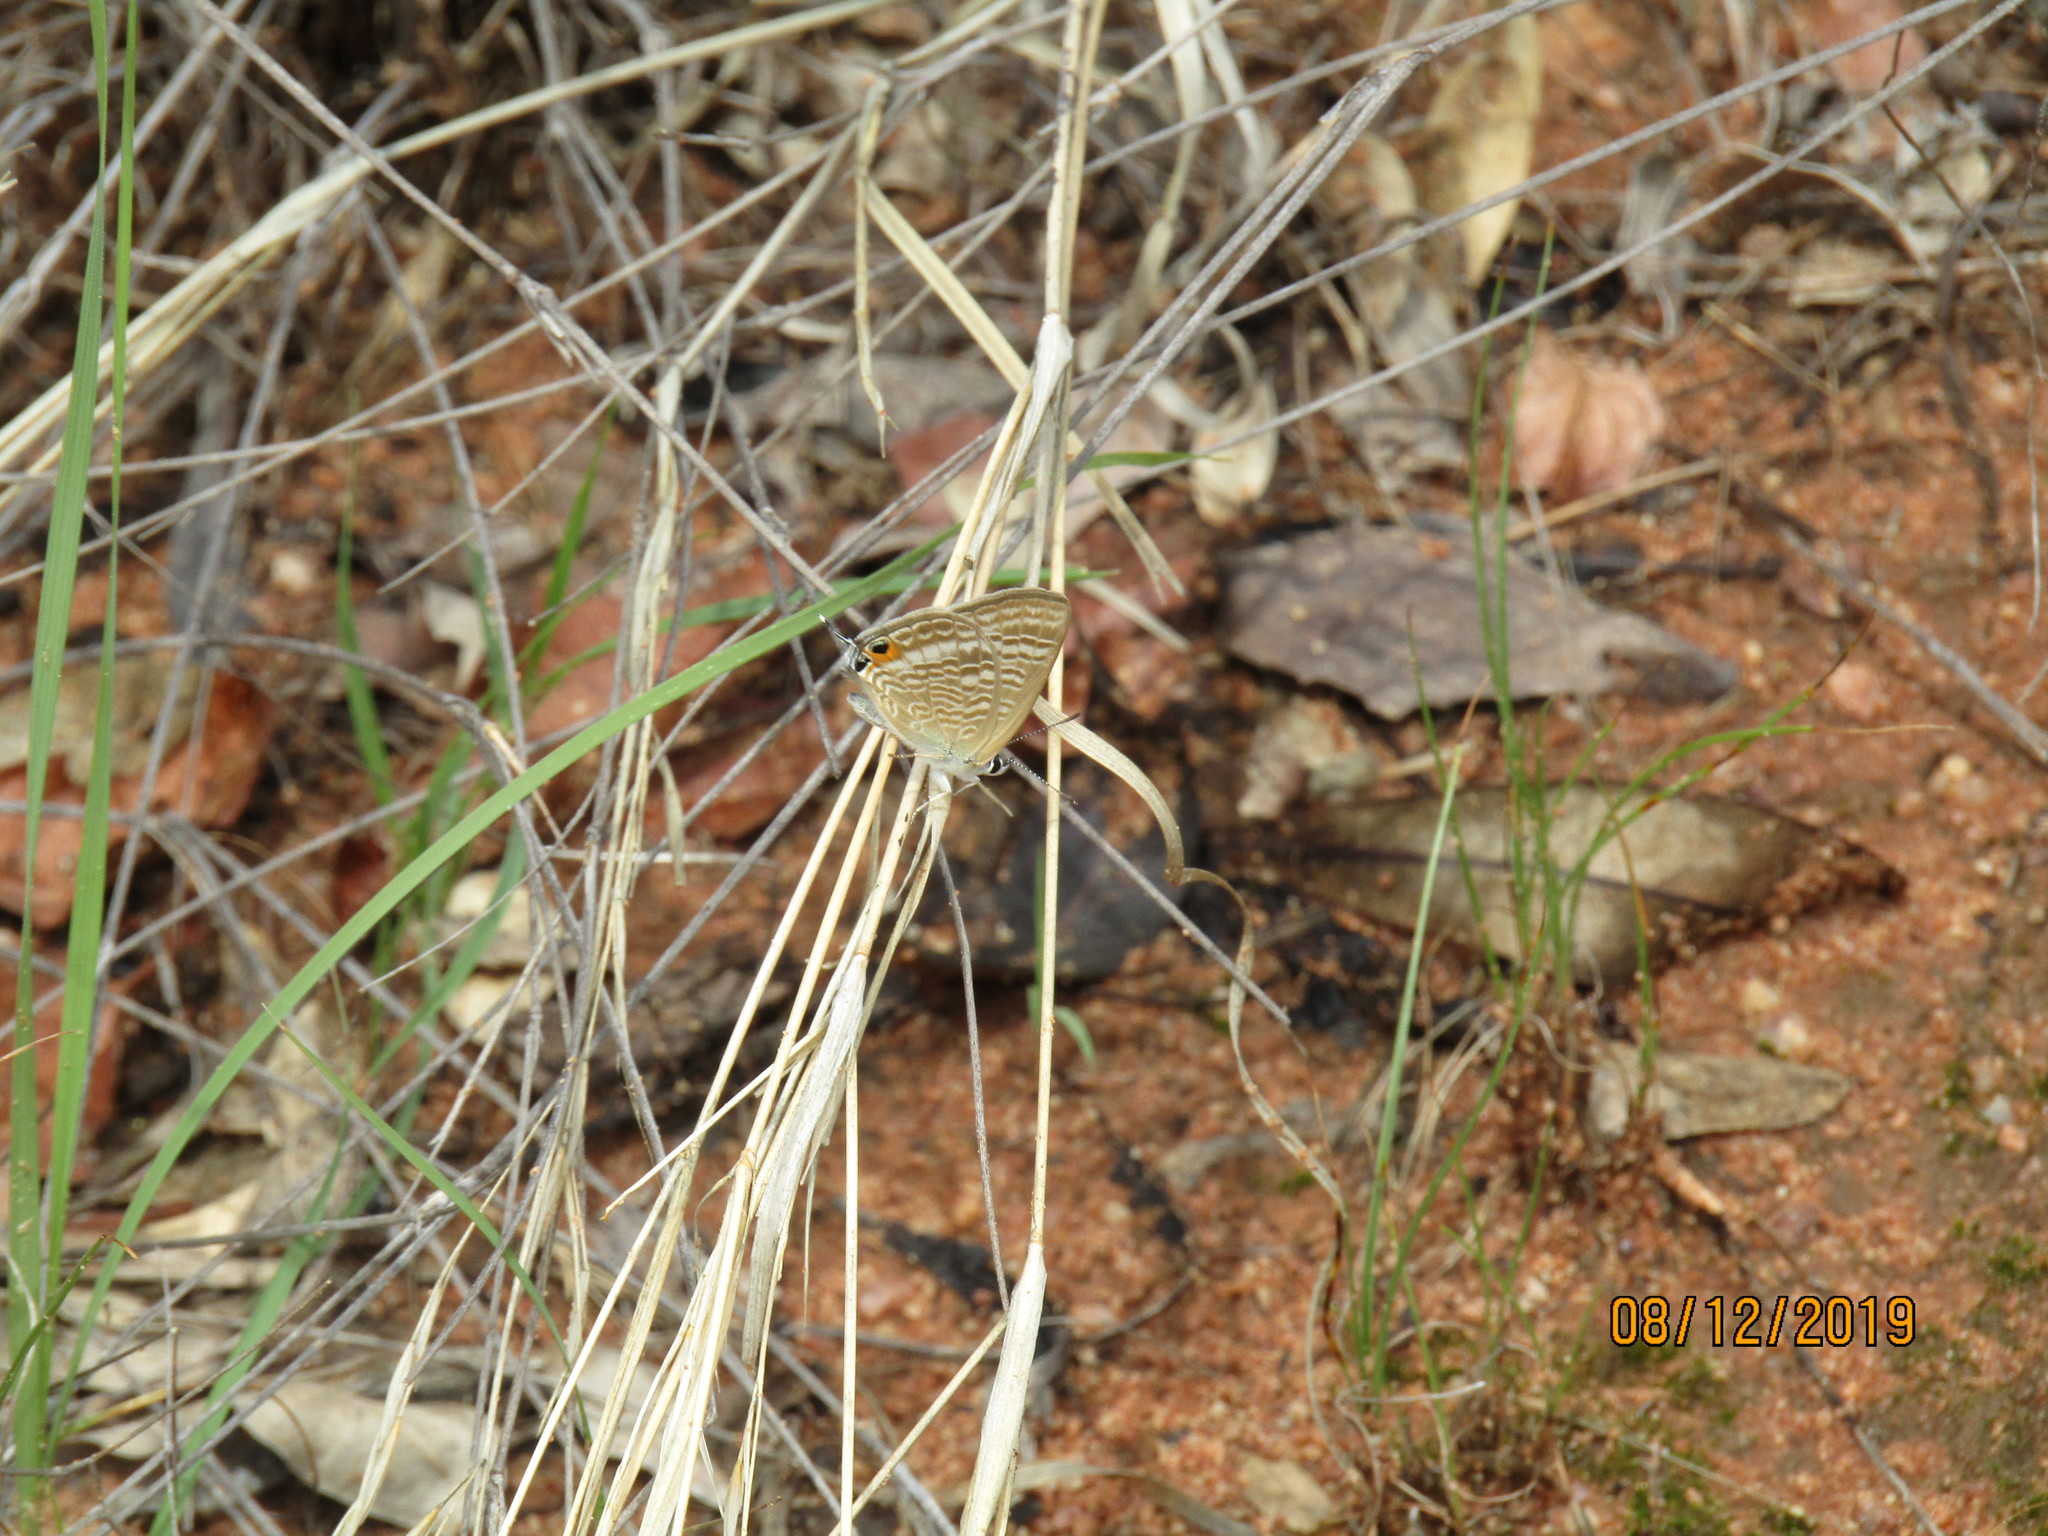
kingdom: Animalia
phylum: Arthropoda
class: Insecta
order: Lepidoptera
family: Lycaenidae
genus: Lampides
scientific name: Lampides boeticus
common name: Long-tailed blue
